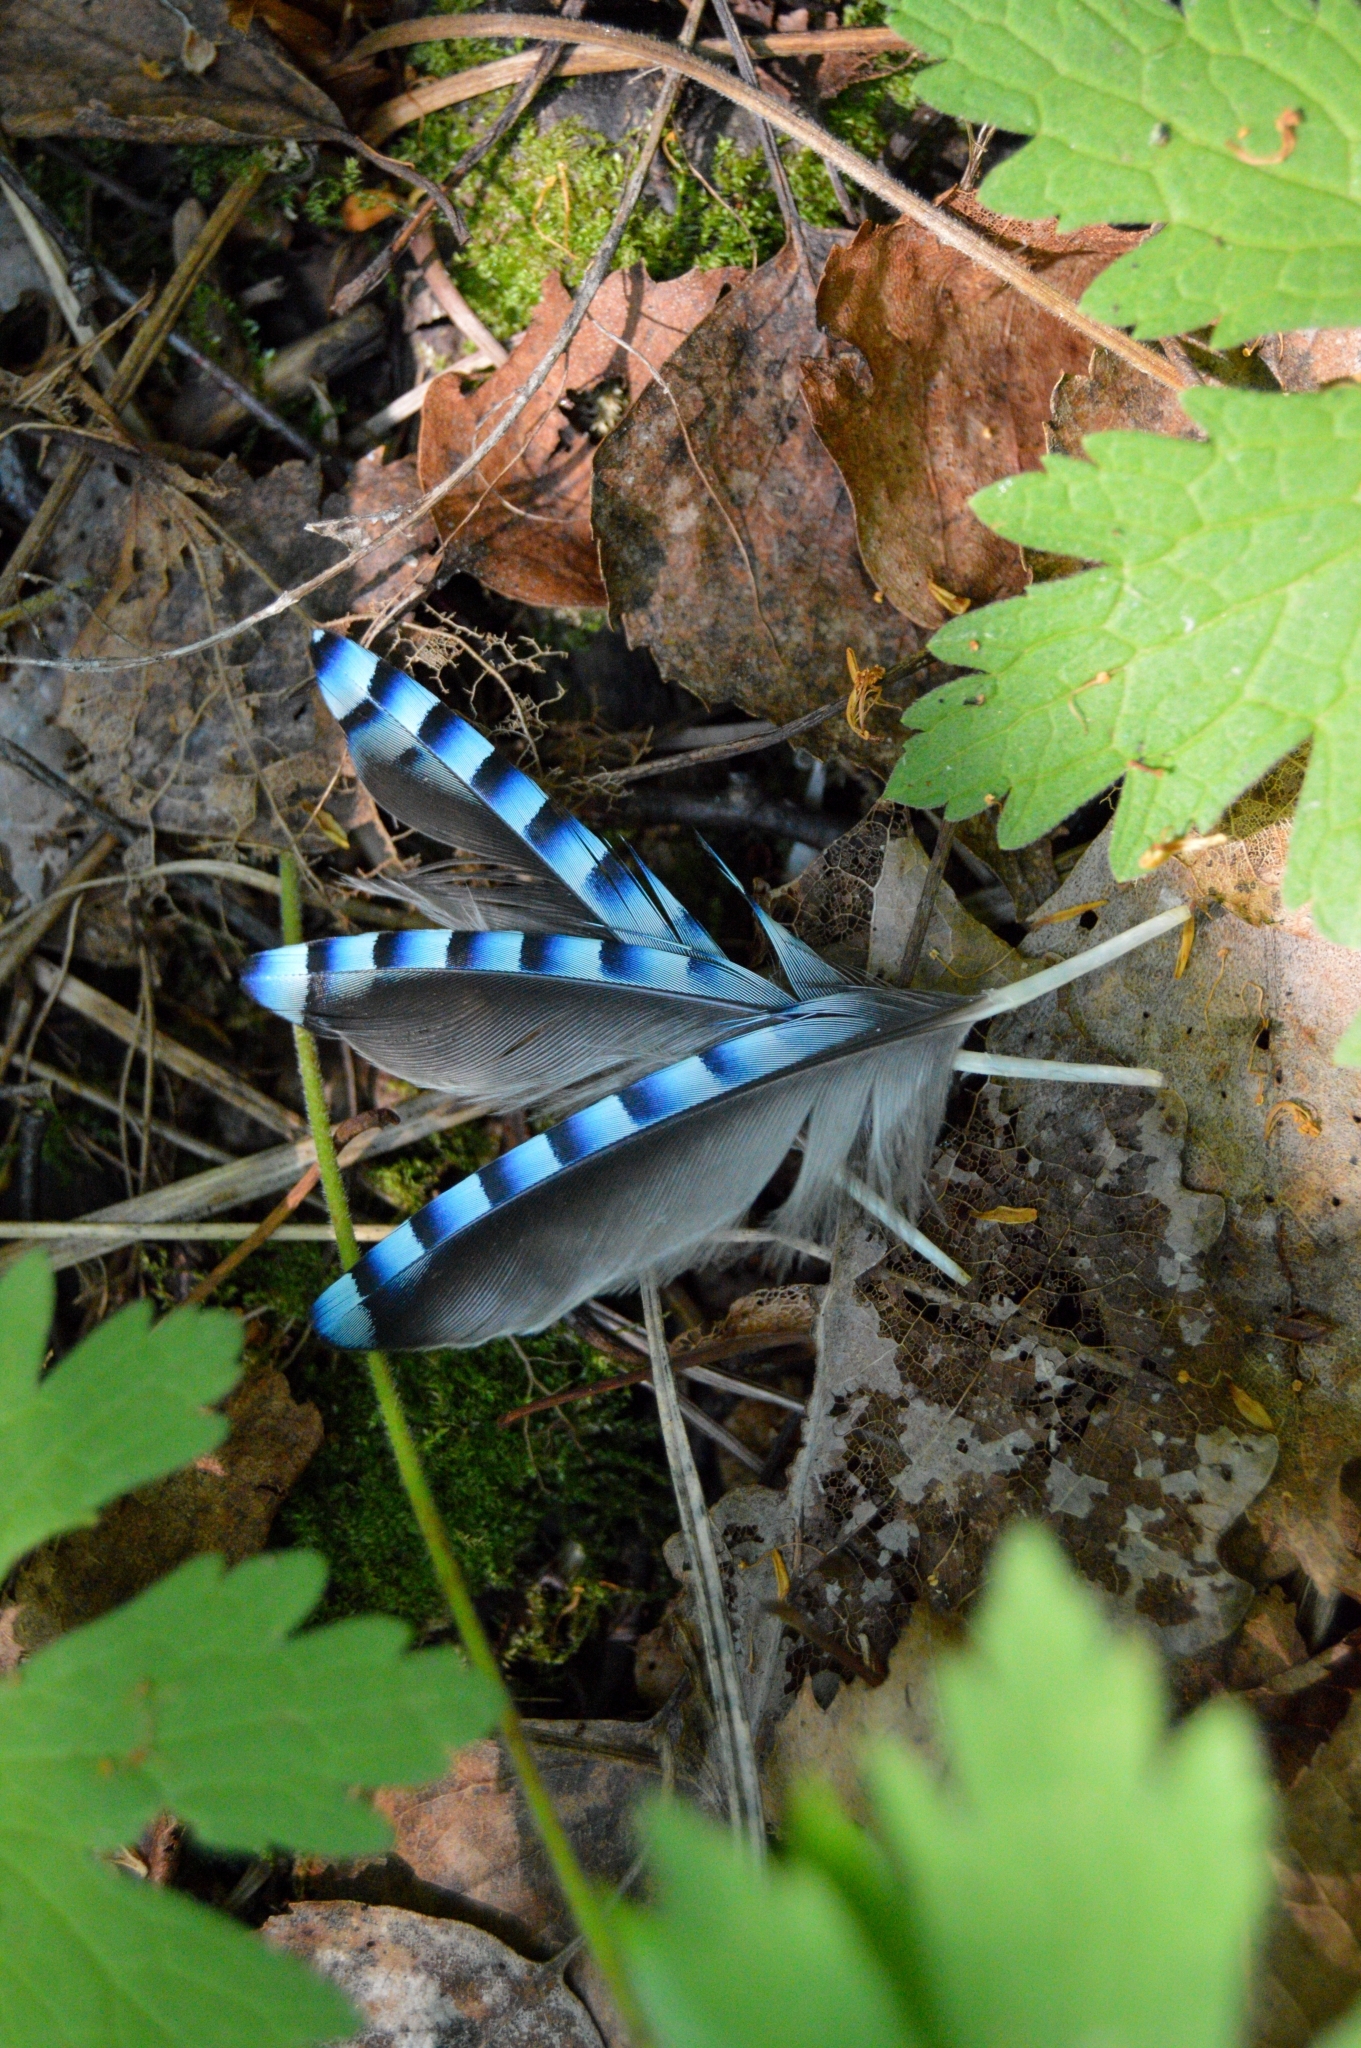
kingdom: Animalia
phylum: Chordata
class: Aves
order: Passeriformes
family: Corvidae
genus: Garrulus
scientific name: Garrulus glandarius
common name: Eurasian jay
